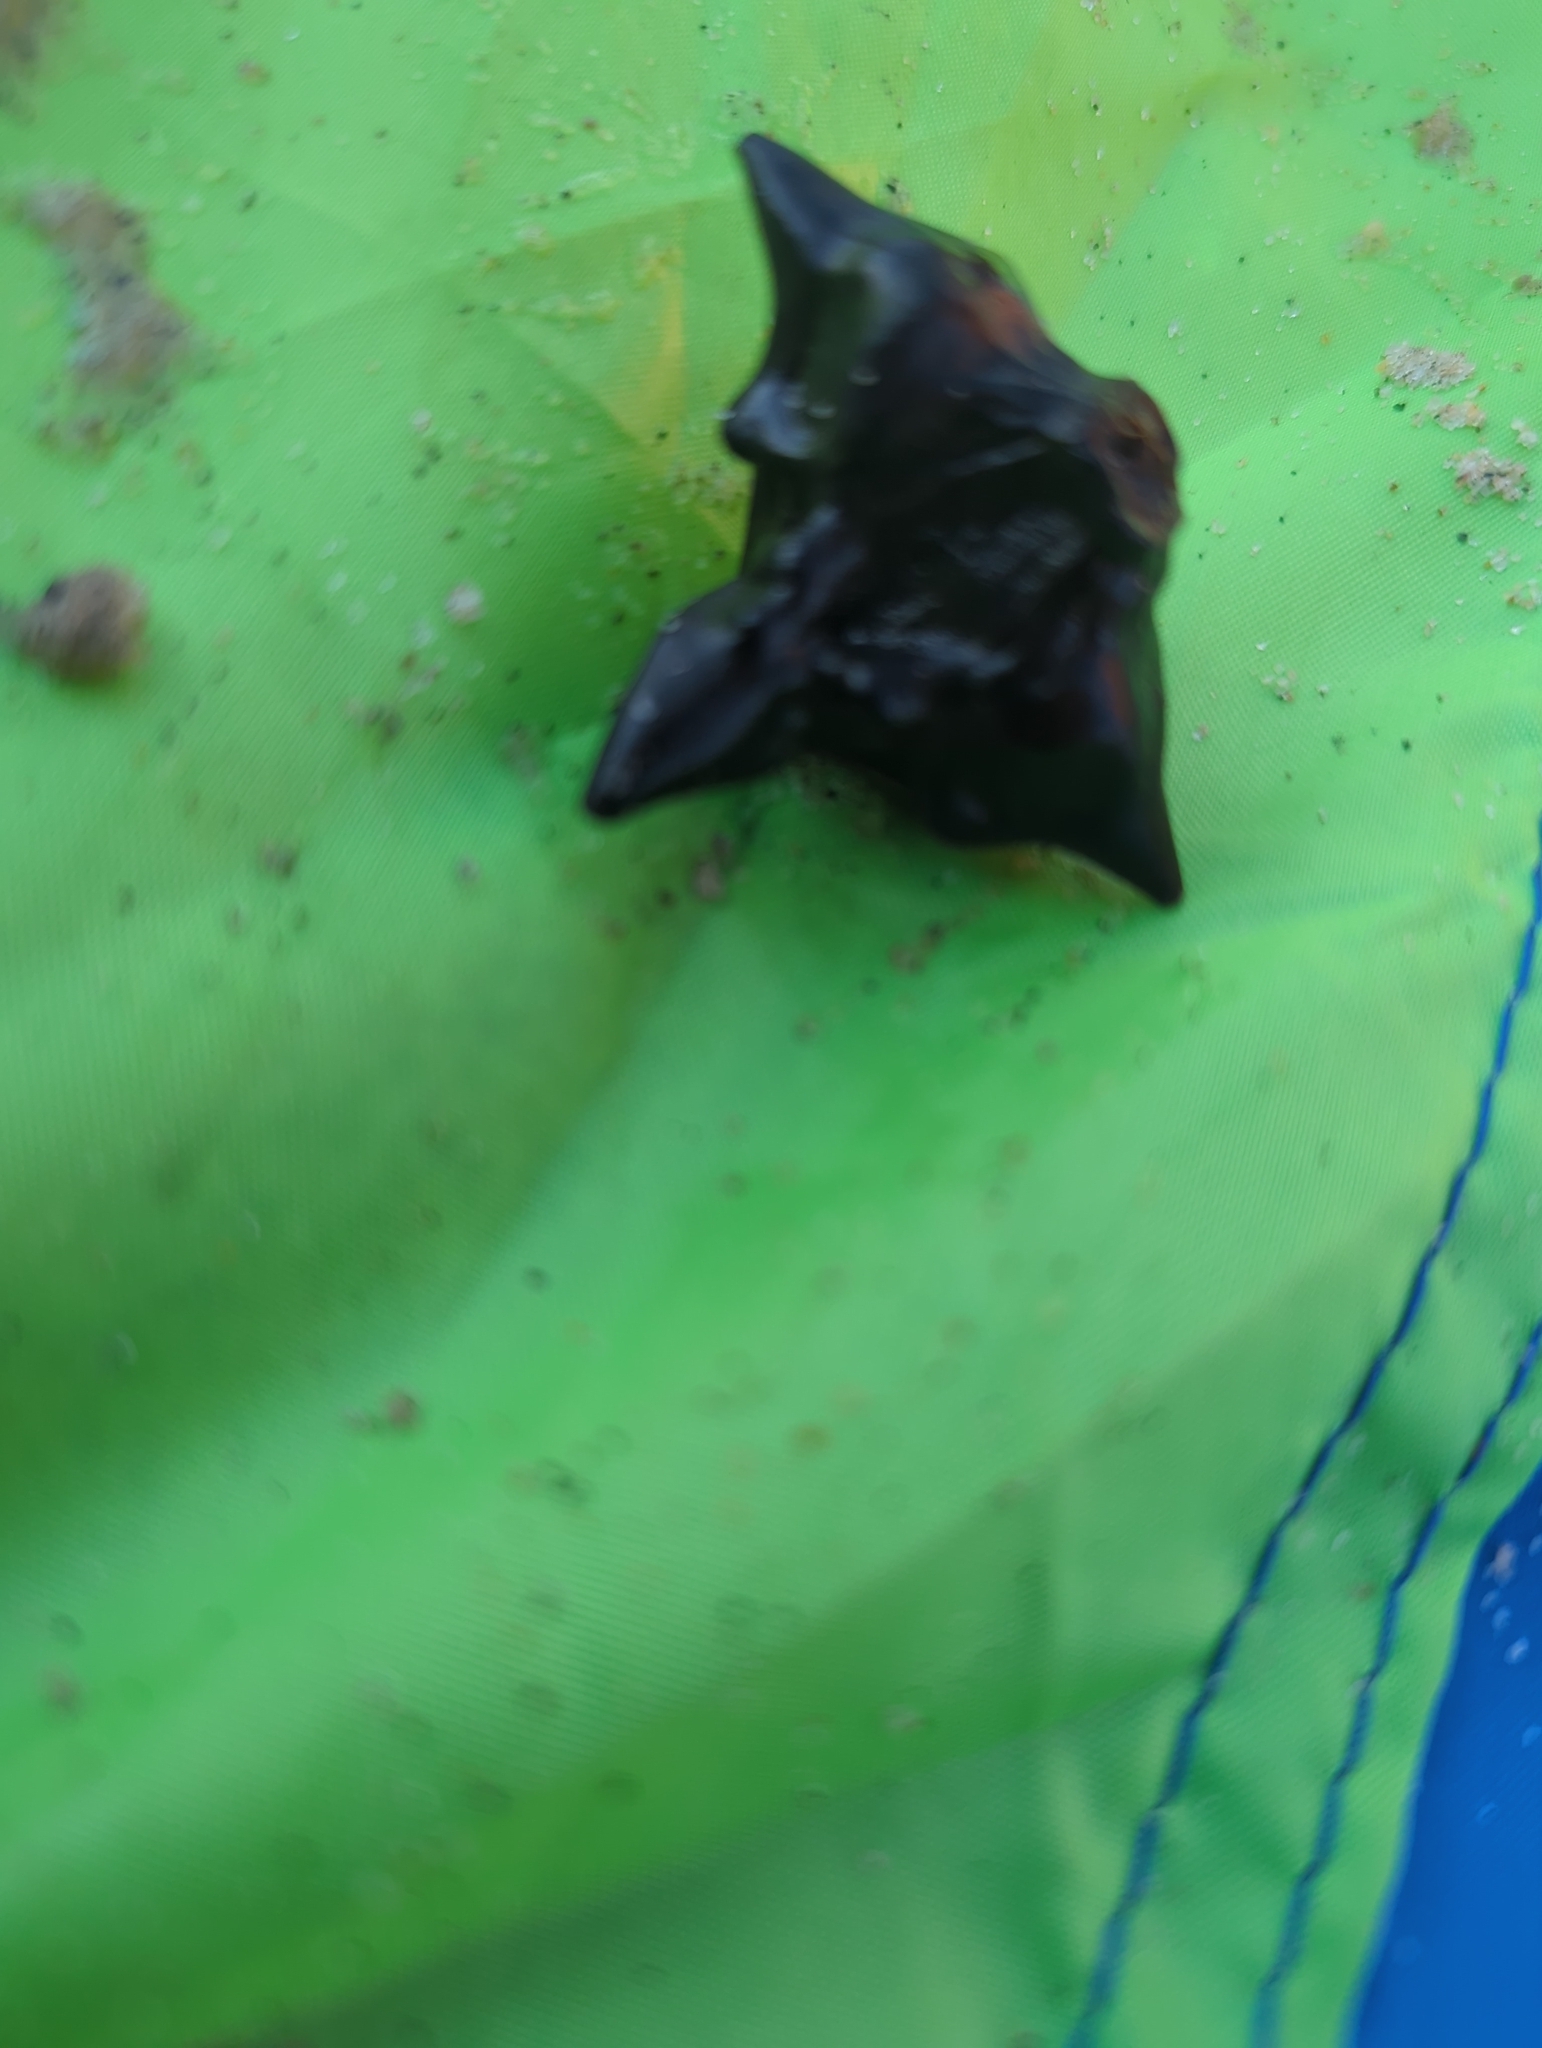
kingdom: Plantae
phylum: Tracheophyta
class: Magnoliopsida
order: Myrtales
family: Lythraceae
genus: Trapa
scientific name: Trapa natans
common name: Water chestnut
